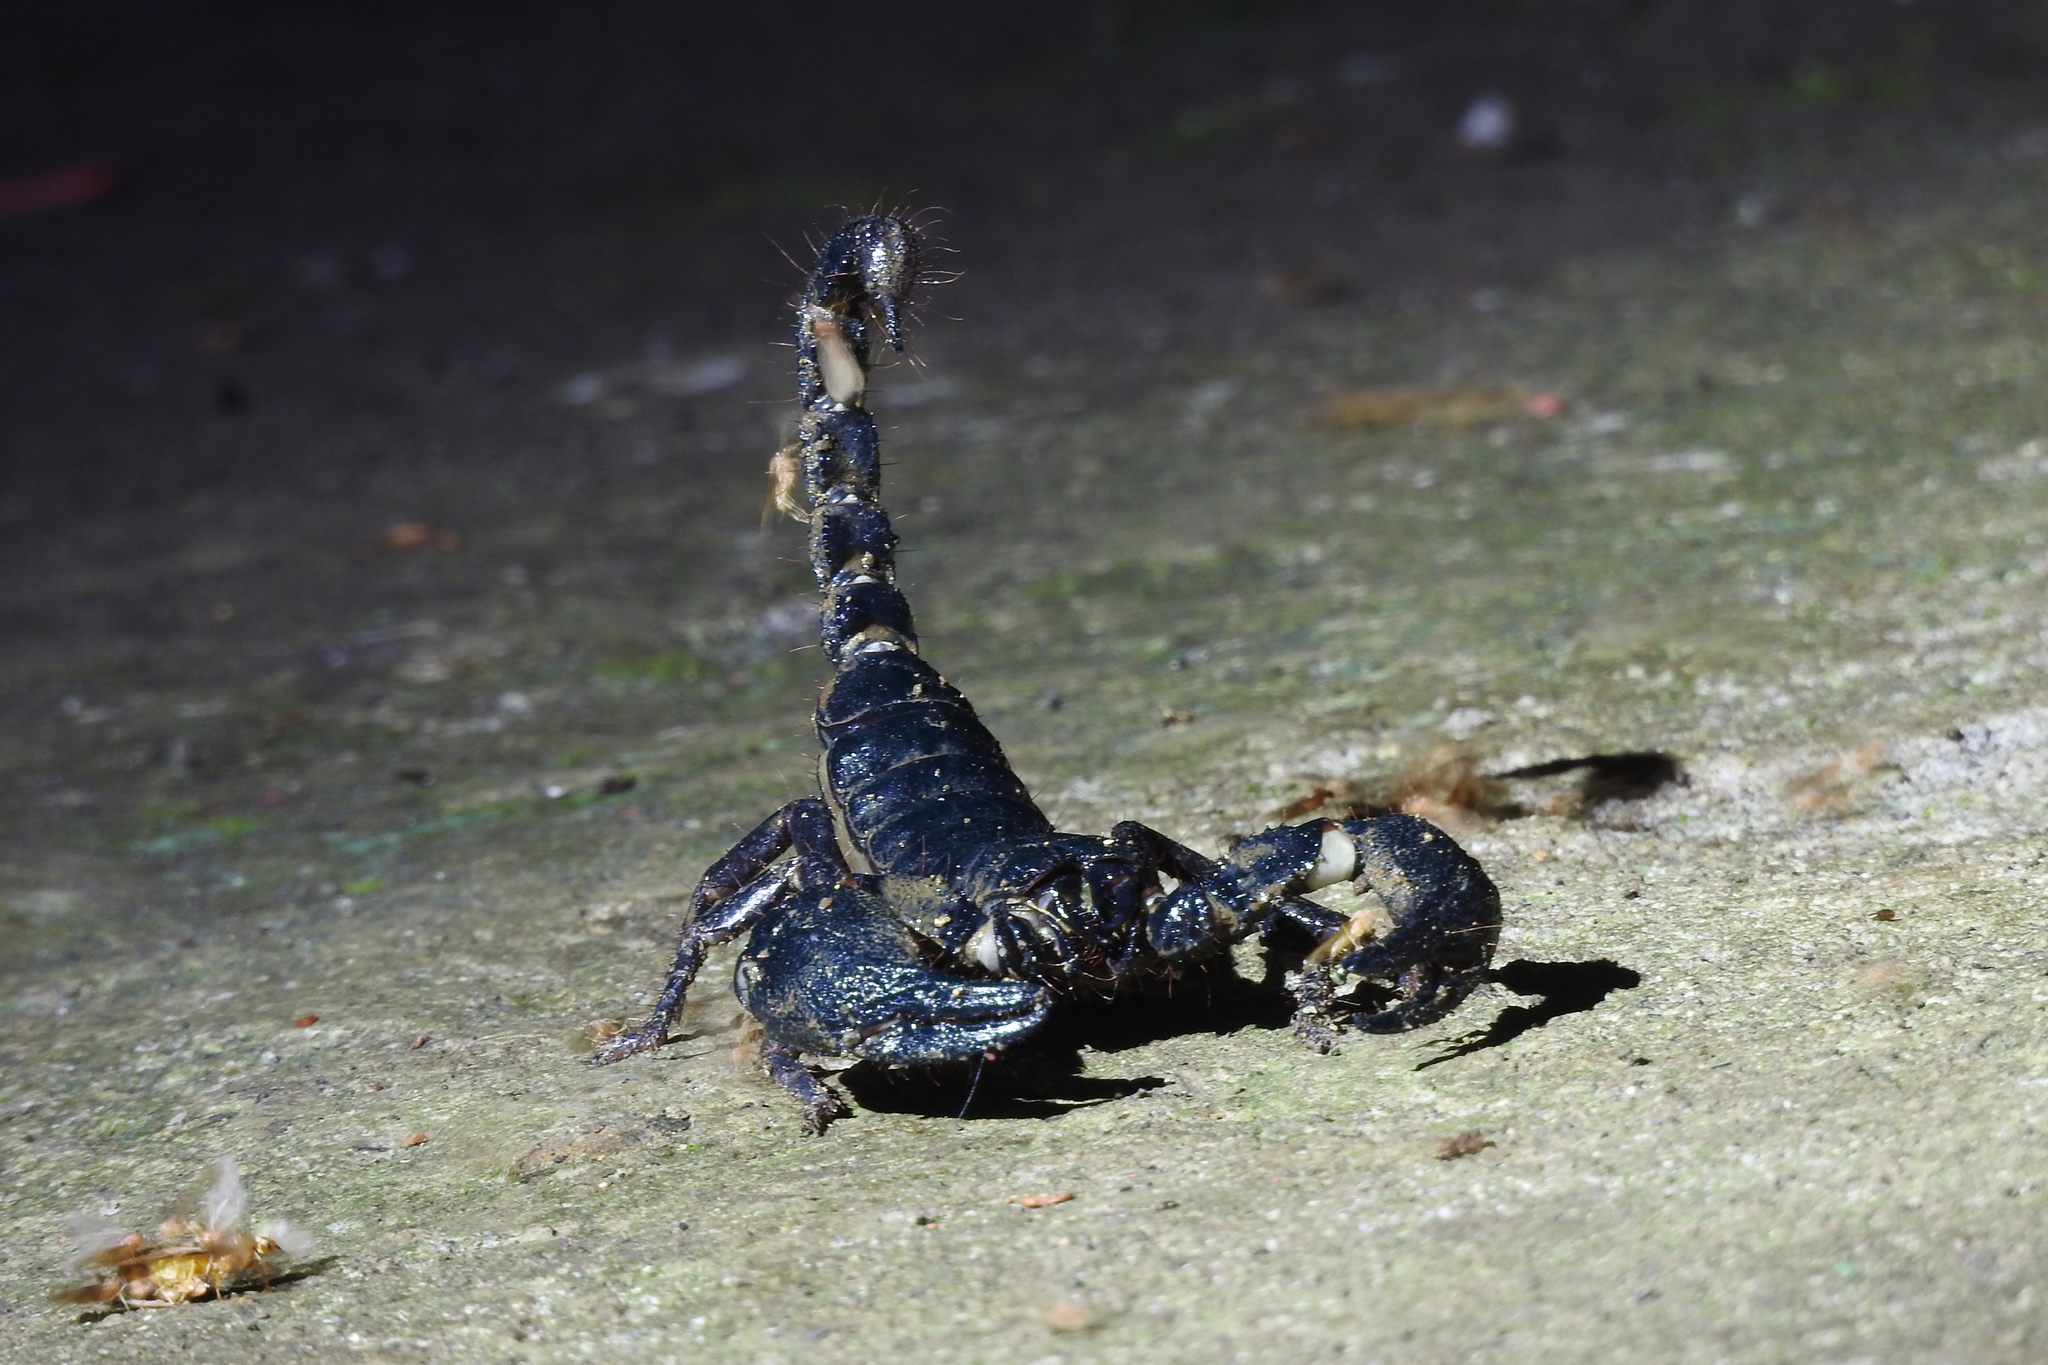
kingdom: Animalia
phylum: Arthropoda
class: Arachnida
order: Scorpiones
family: Scorpionidae
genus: Javanimetrus
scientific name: Javanimetrus cyaneus
